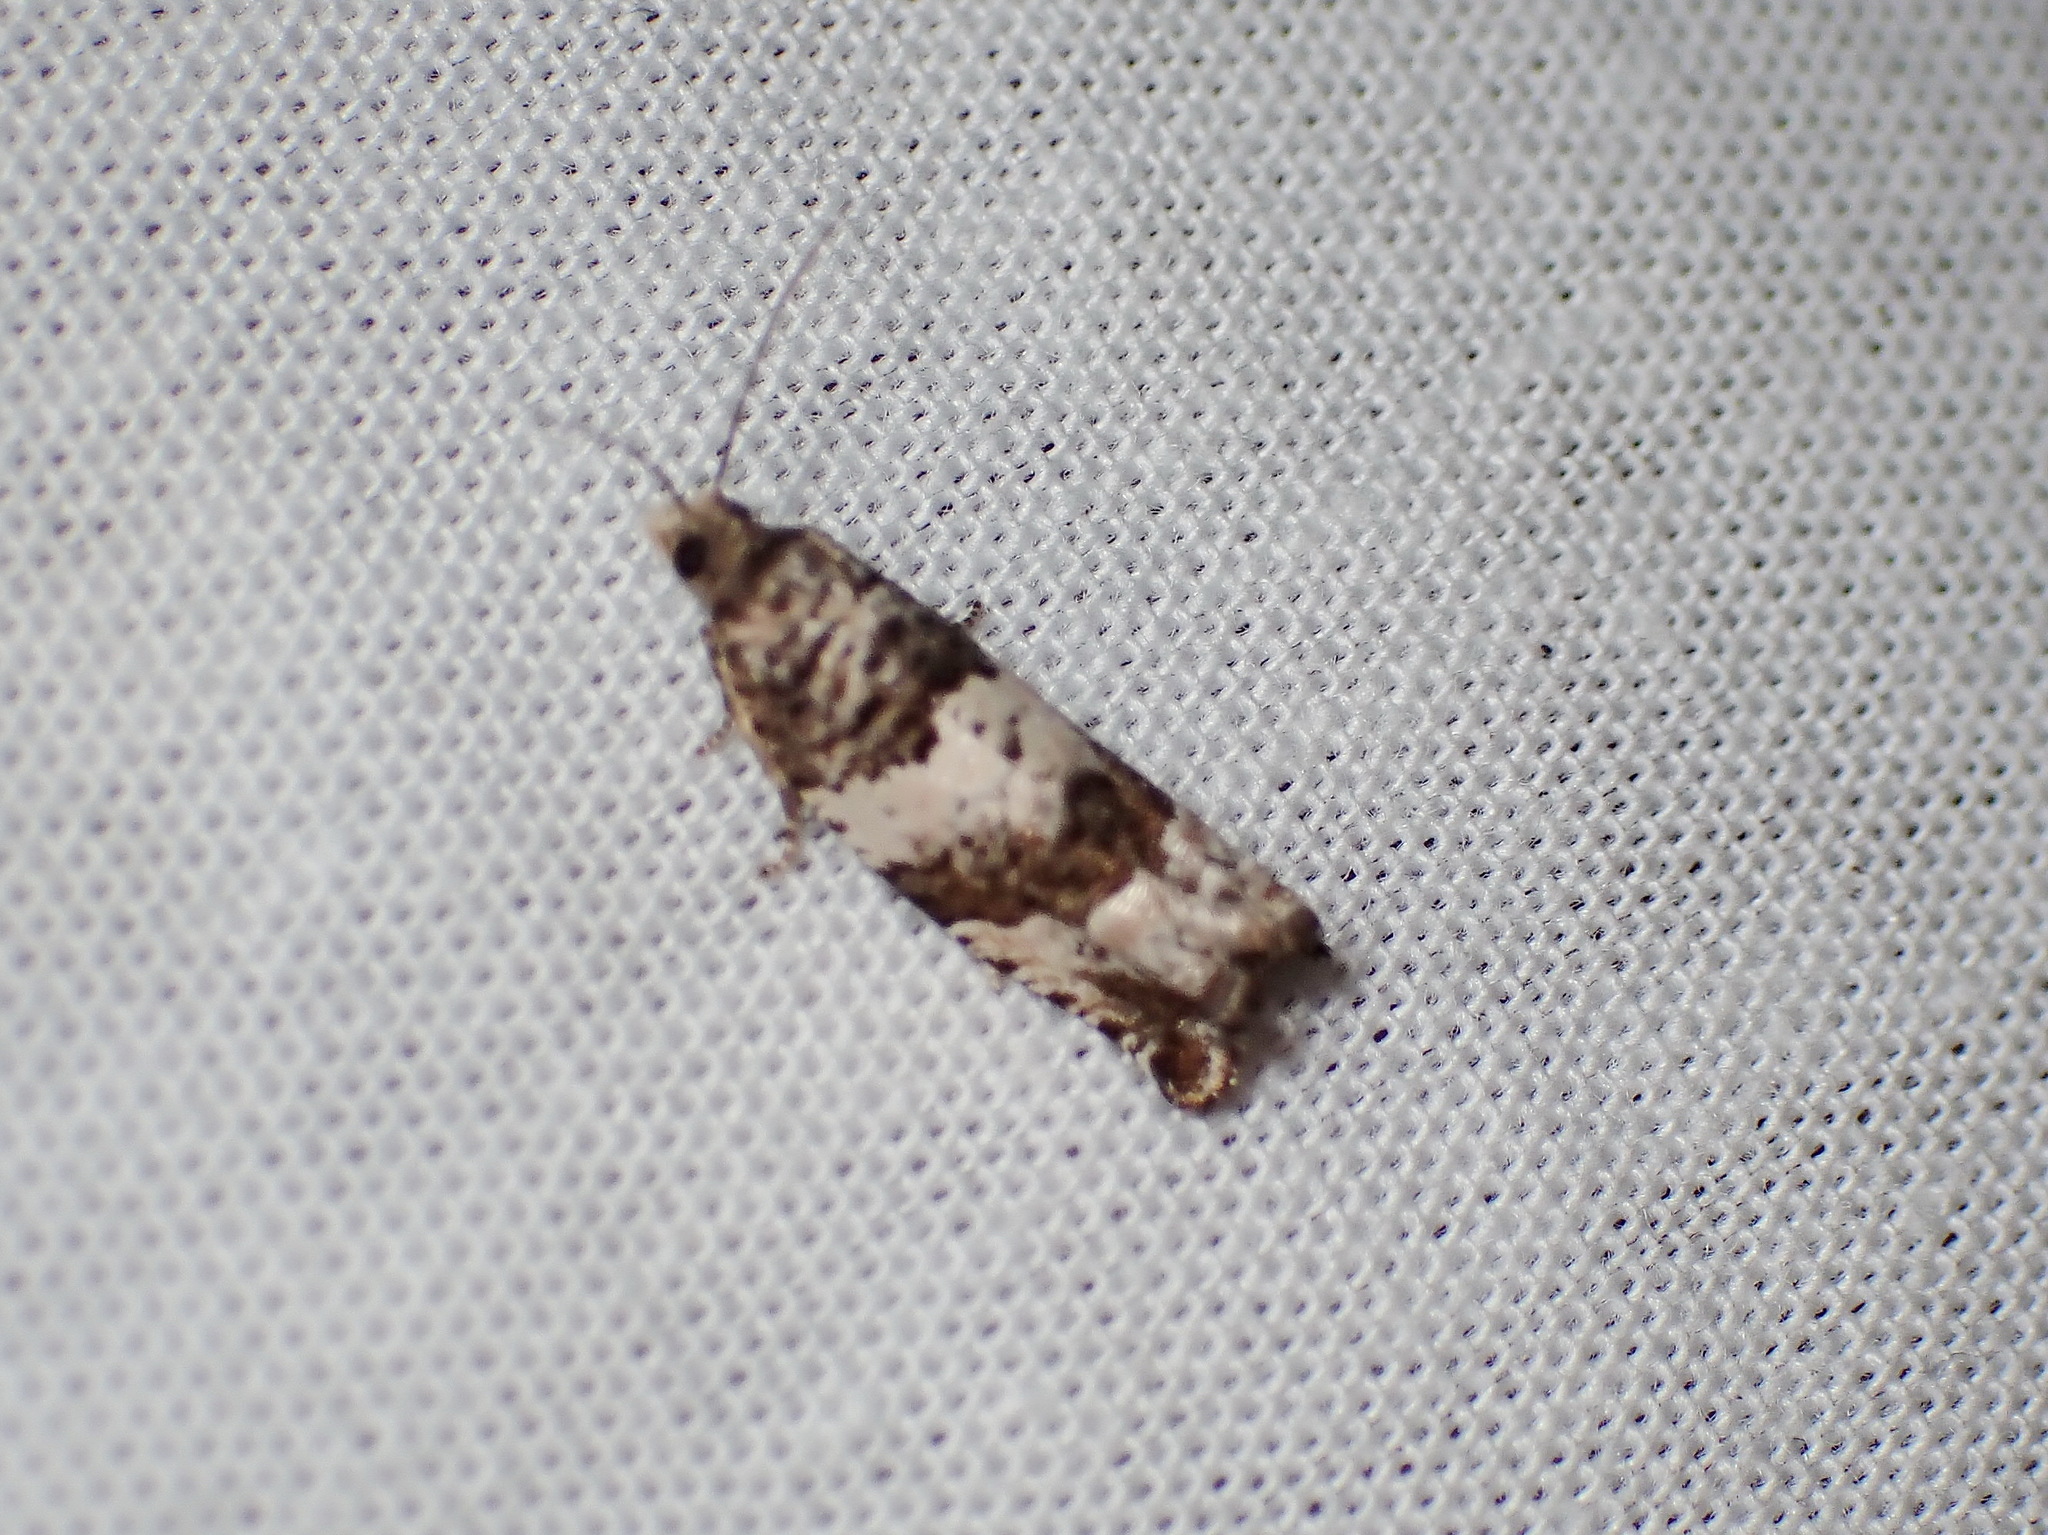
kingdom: Animalia
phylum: Arthropoda
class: Insecta
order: Lepidoptera
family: Tortricidae
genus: Gypsonoma
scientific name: Gypsonoma fasciolana
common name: Willow-and-poplar leafroller
